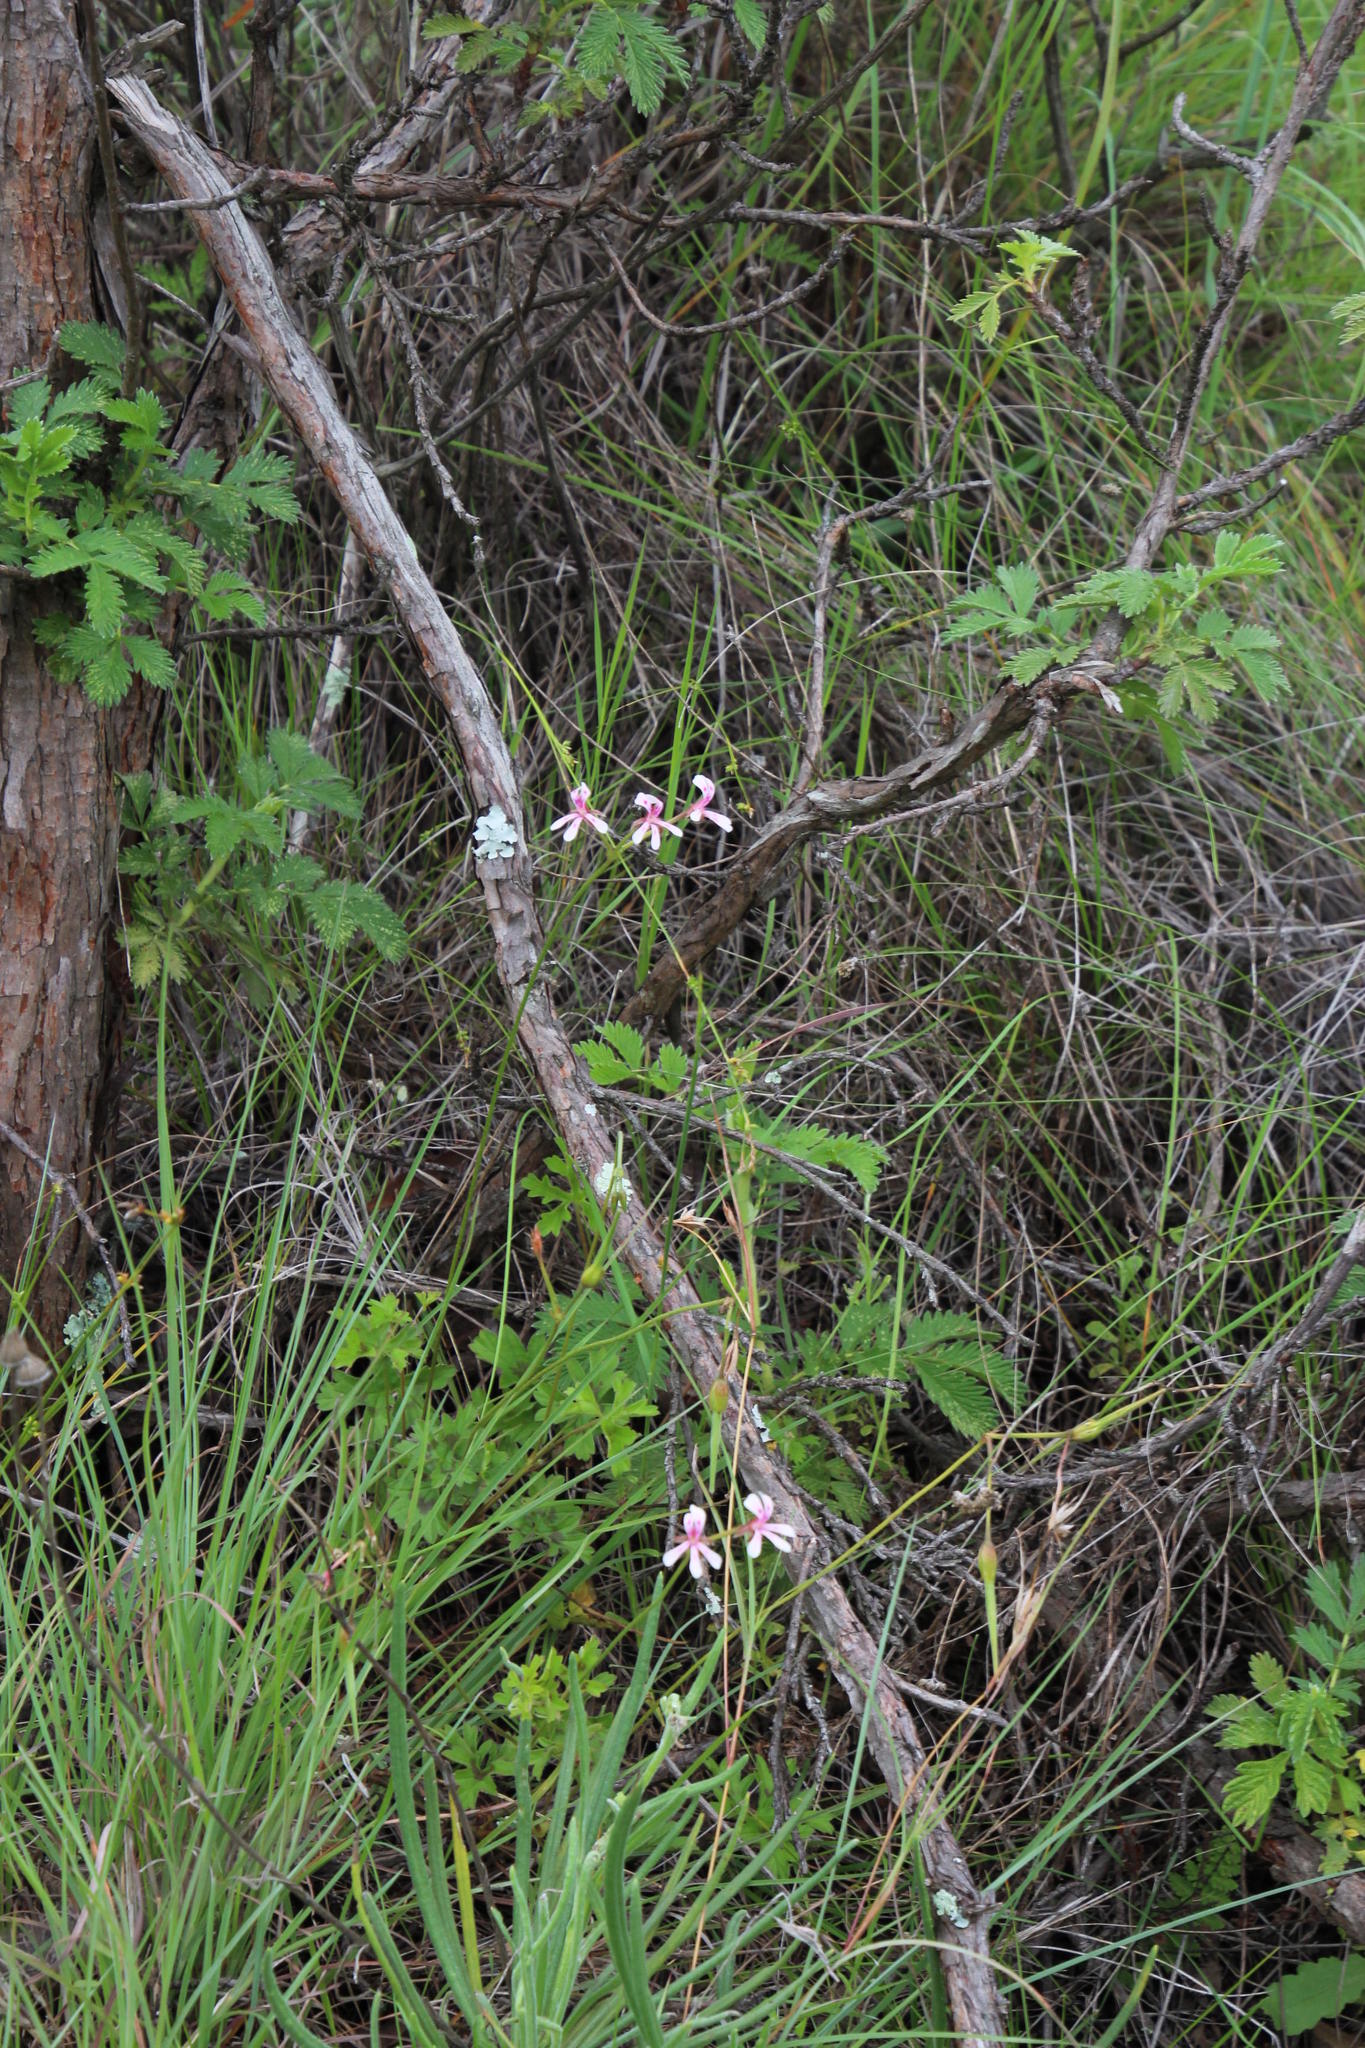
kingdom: Plantae
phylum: Tracheophyta
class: Magnoliopsida
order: Geraniales
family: Geraniaceae
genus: Pelargonium
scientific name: Pelargonium alchemilloides
